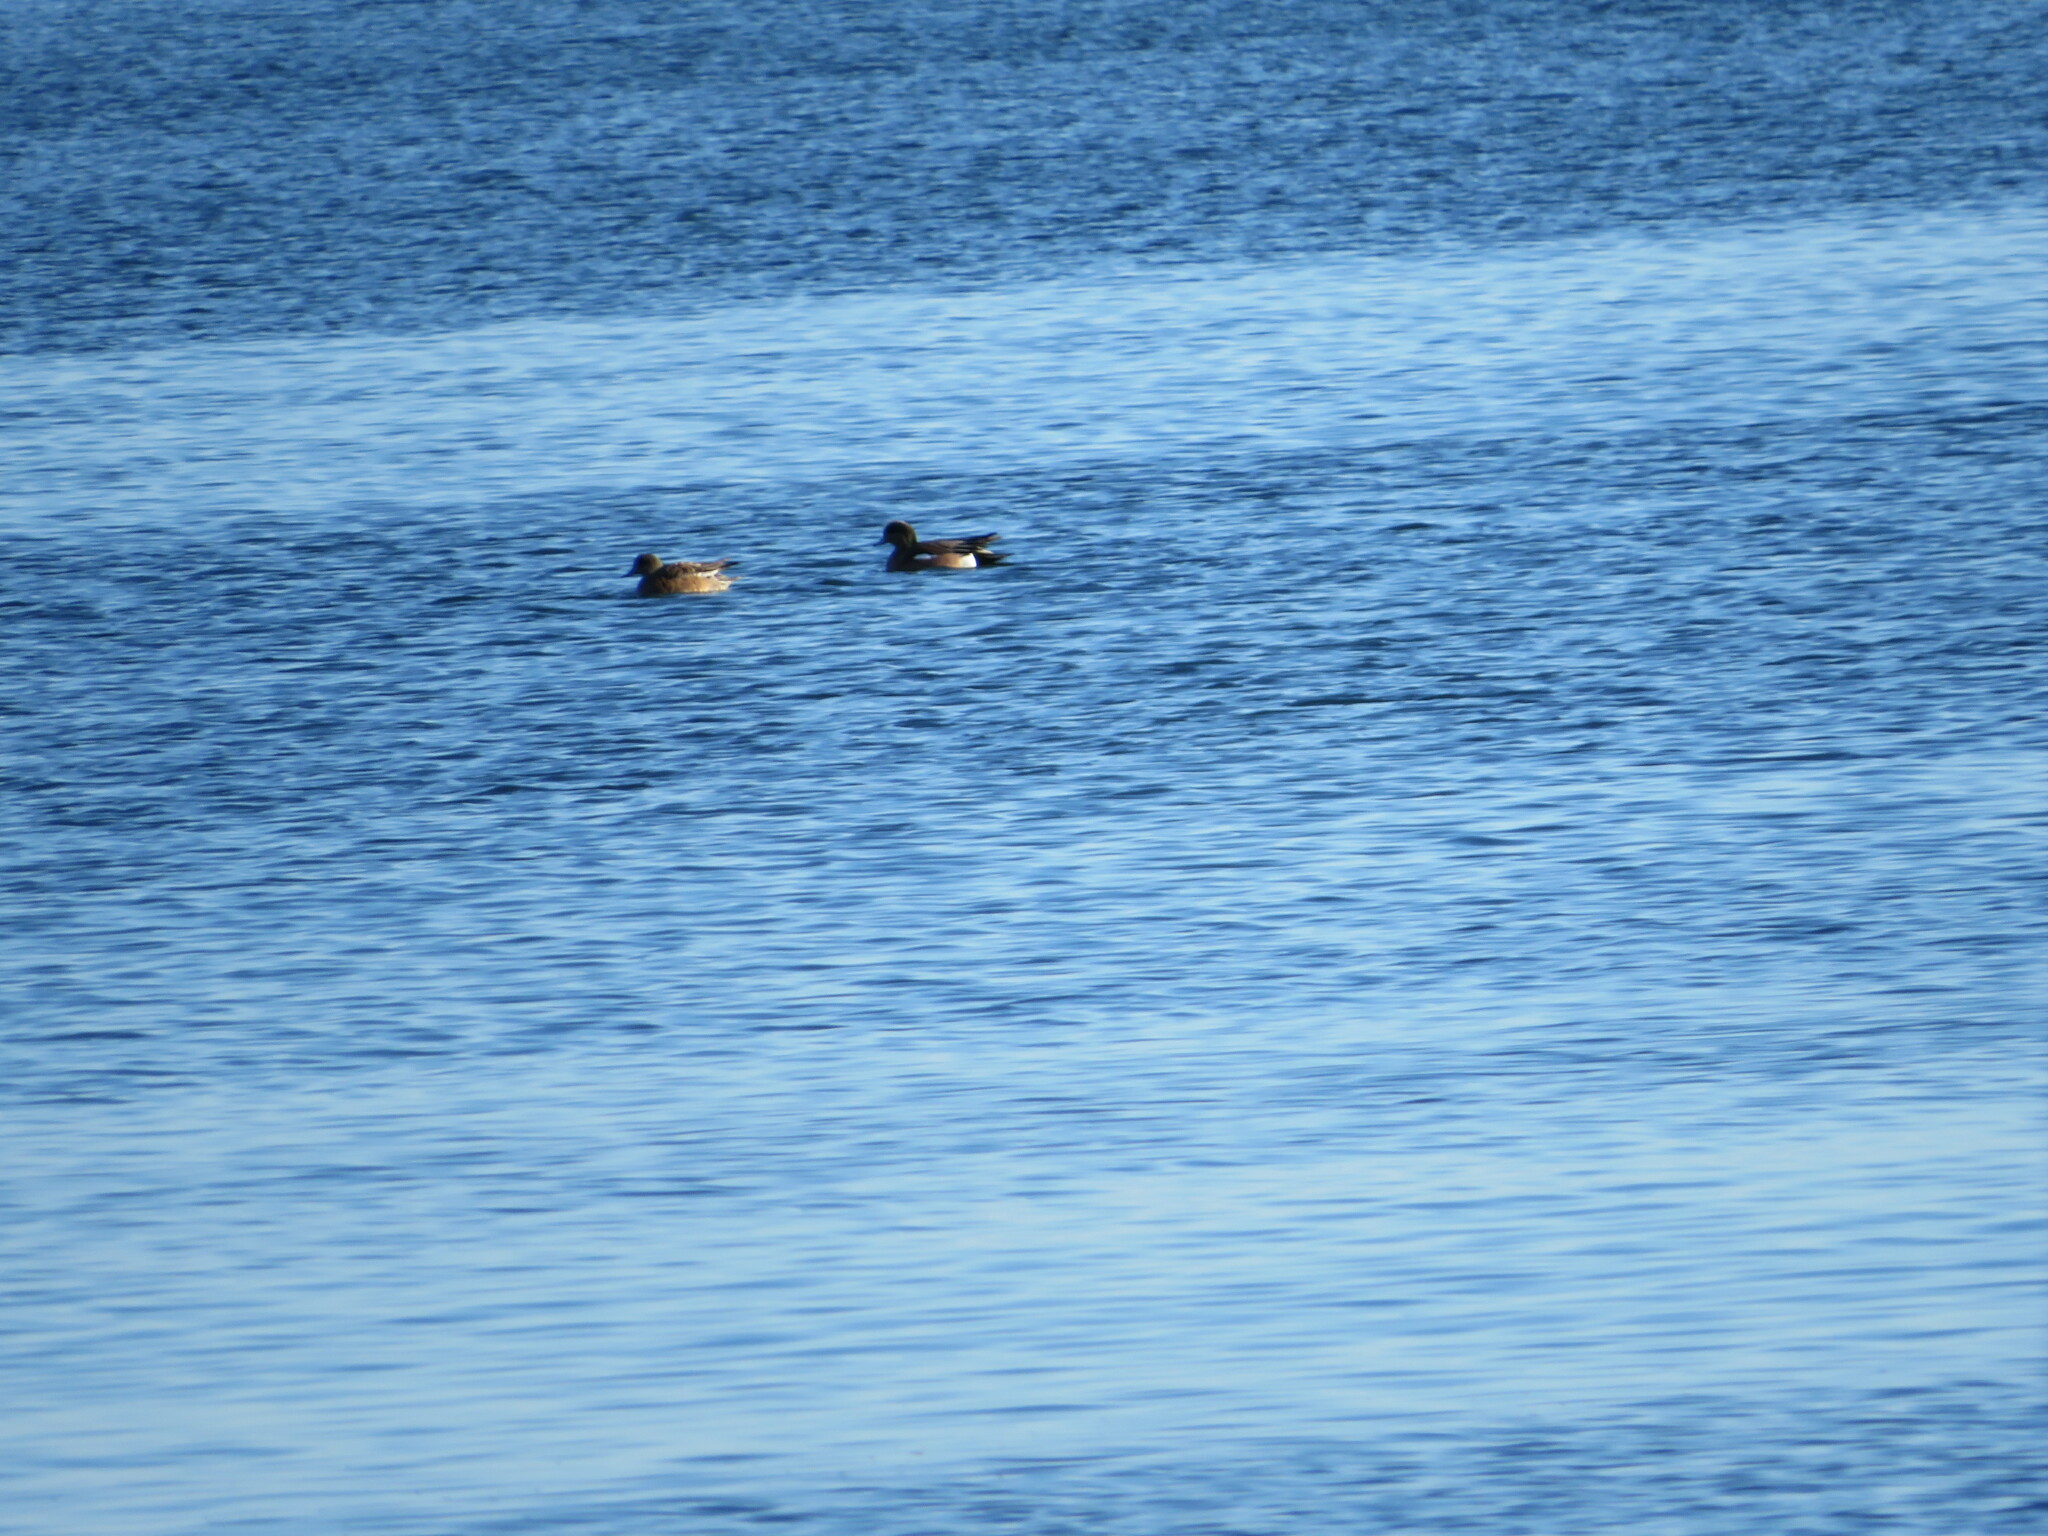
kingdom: Animalia
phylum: Chordata
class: Aves
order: Anseriformes
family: Anatidae
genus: Mareca
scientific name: Mareca americana
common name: American wigeon
